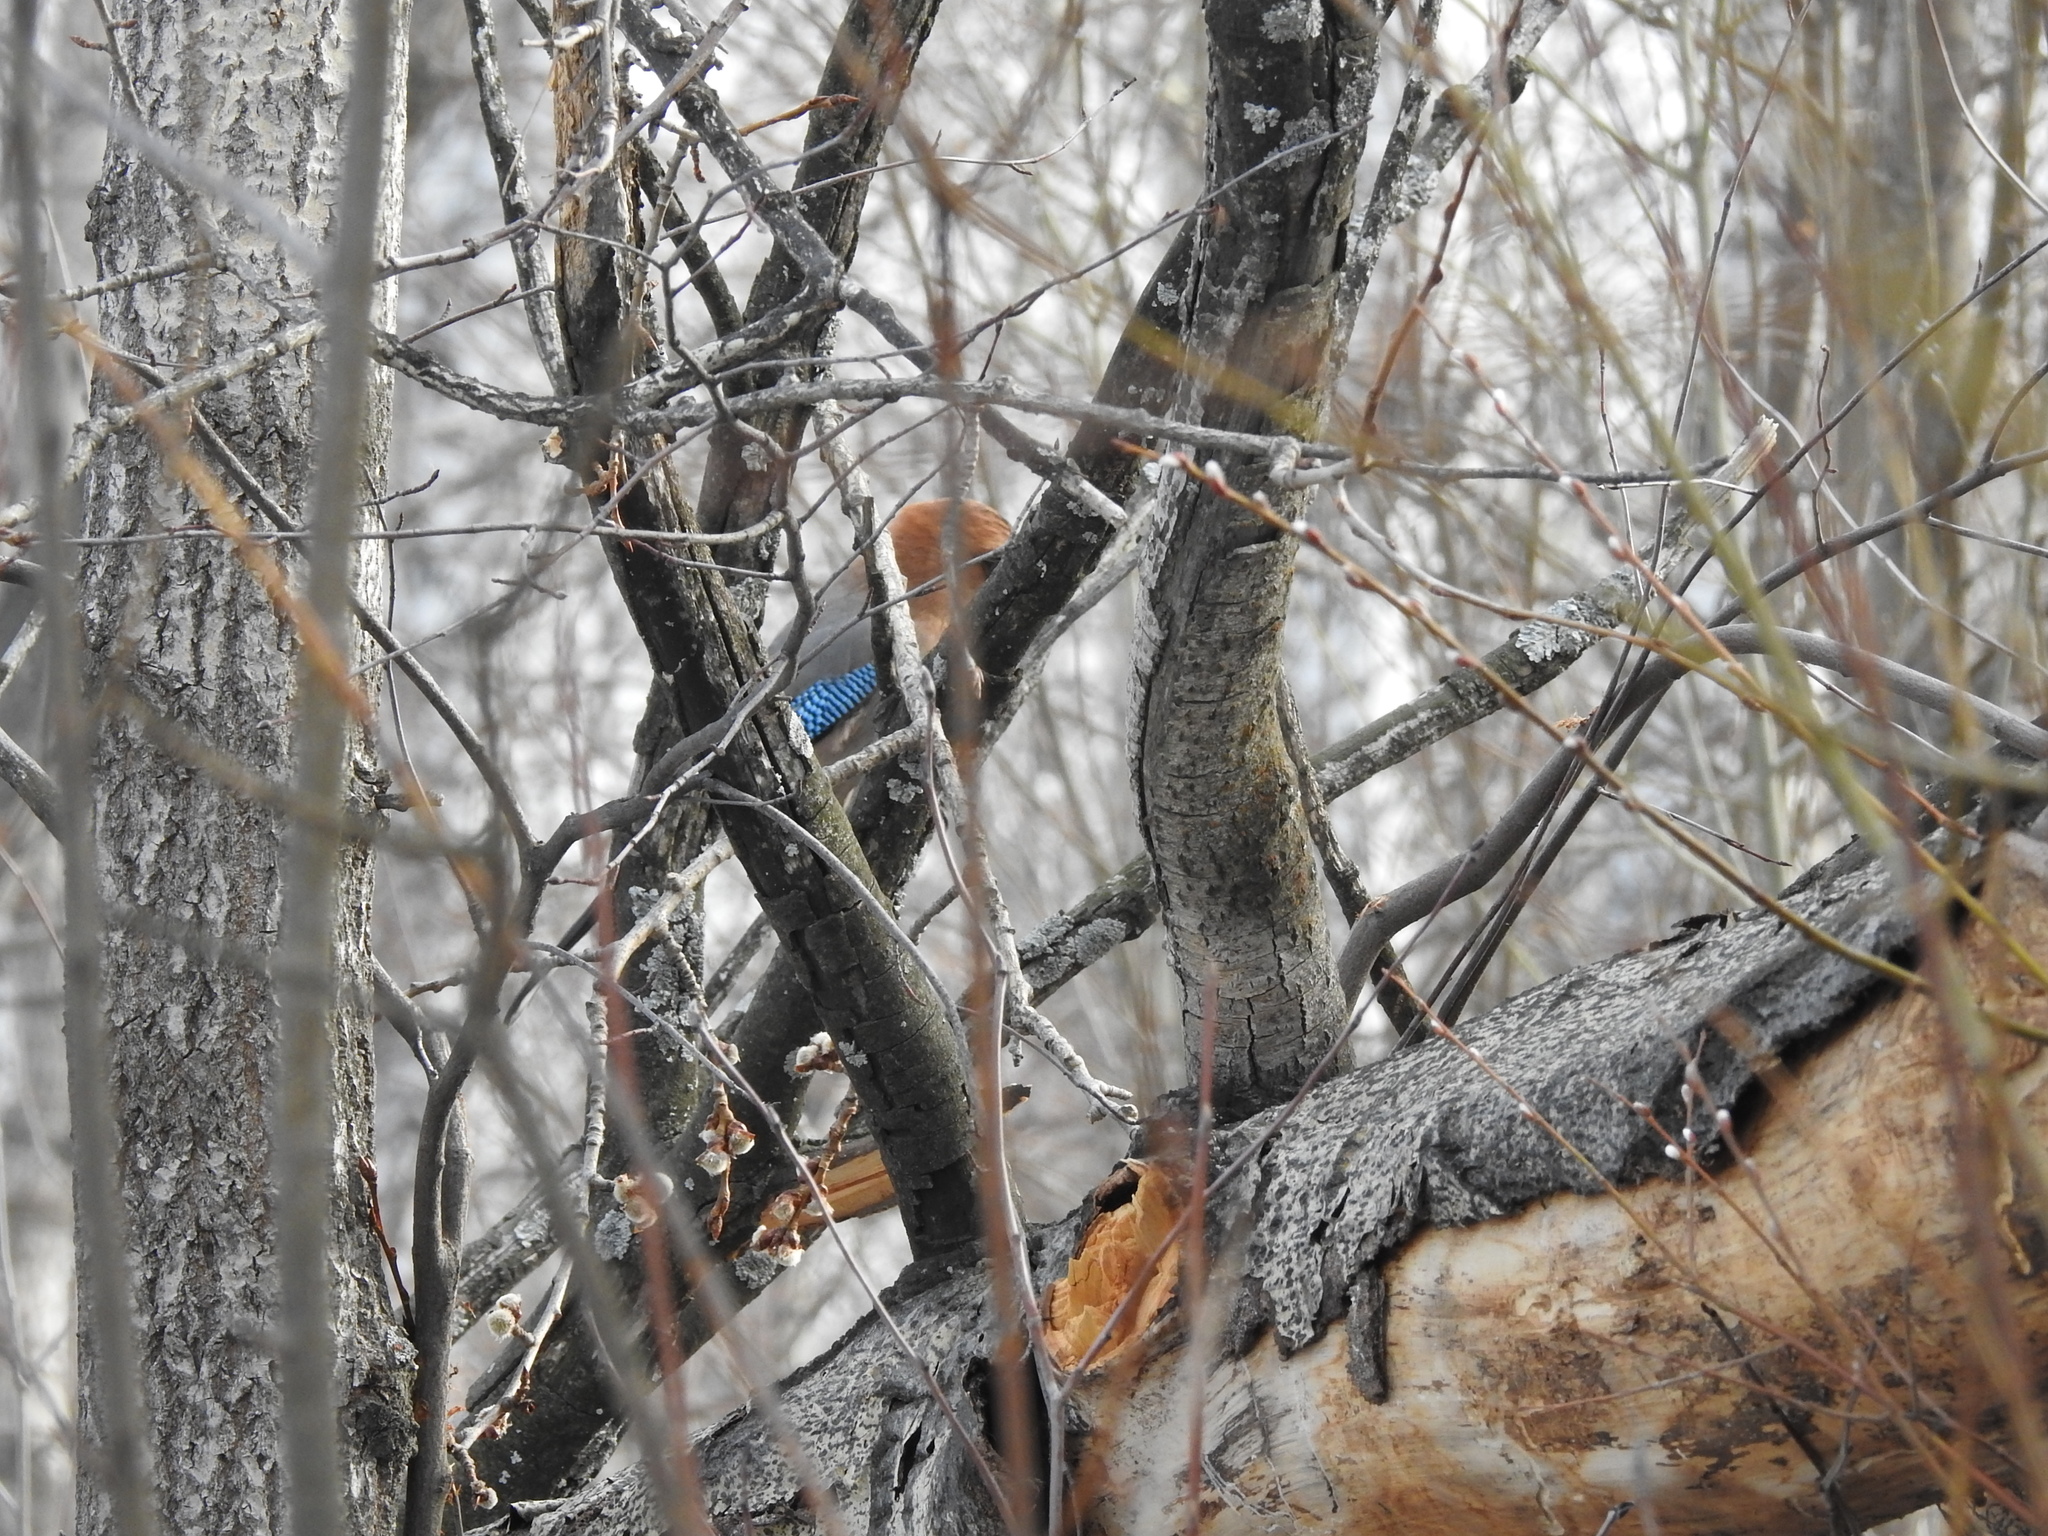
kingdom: Animalia
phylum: Chordata
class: Aves
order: Passeriformes
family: Corvidae
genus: Garrulus
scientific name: Garrulus glandarius
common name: Eurasian jay
